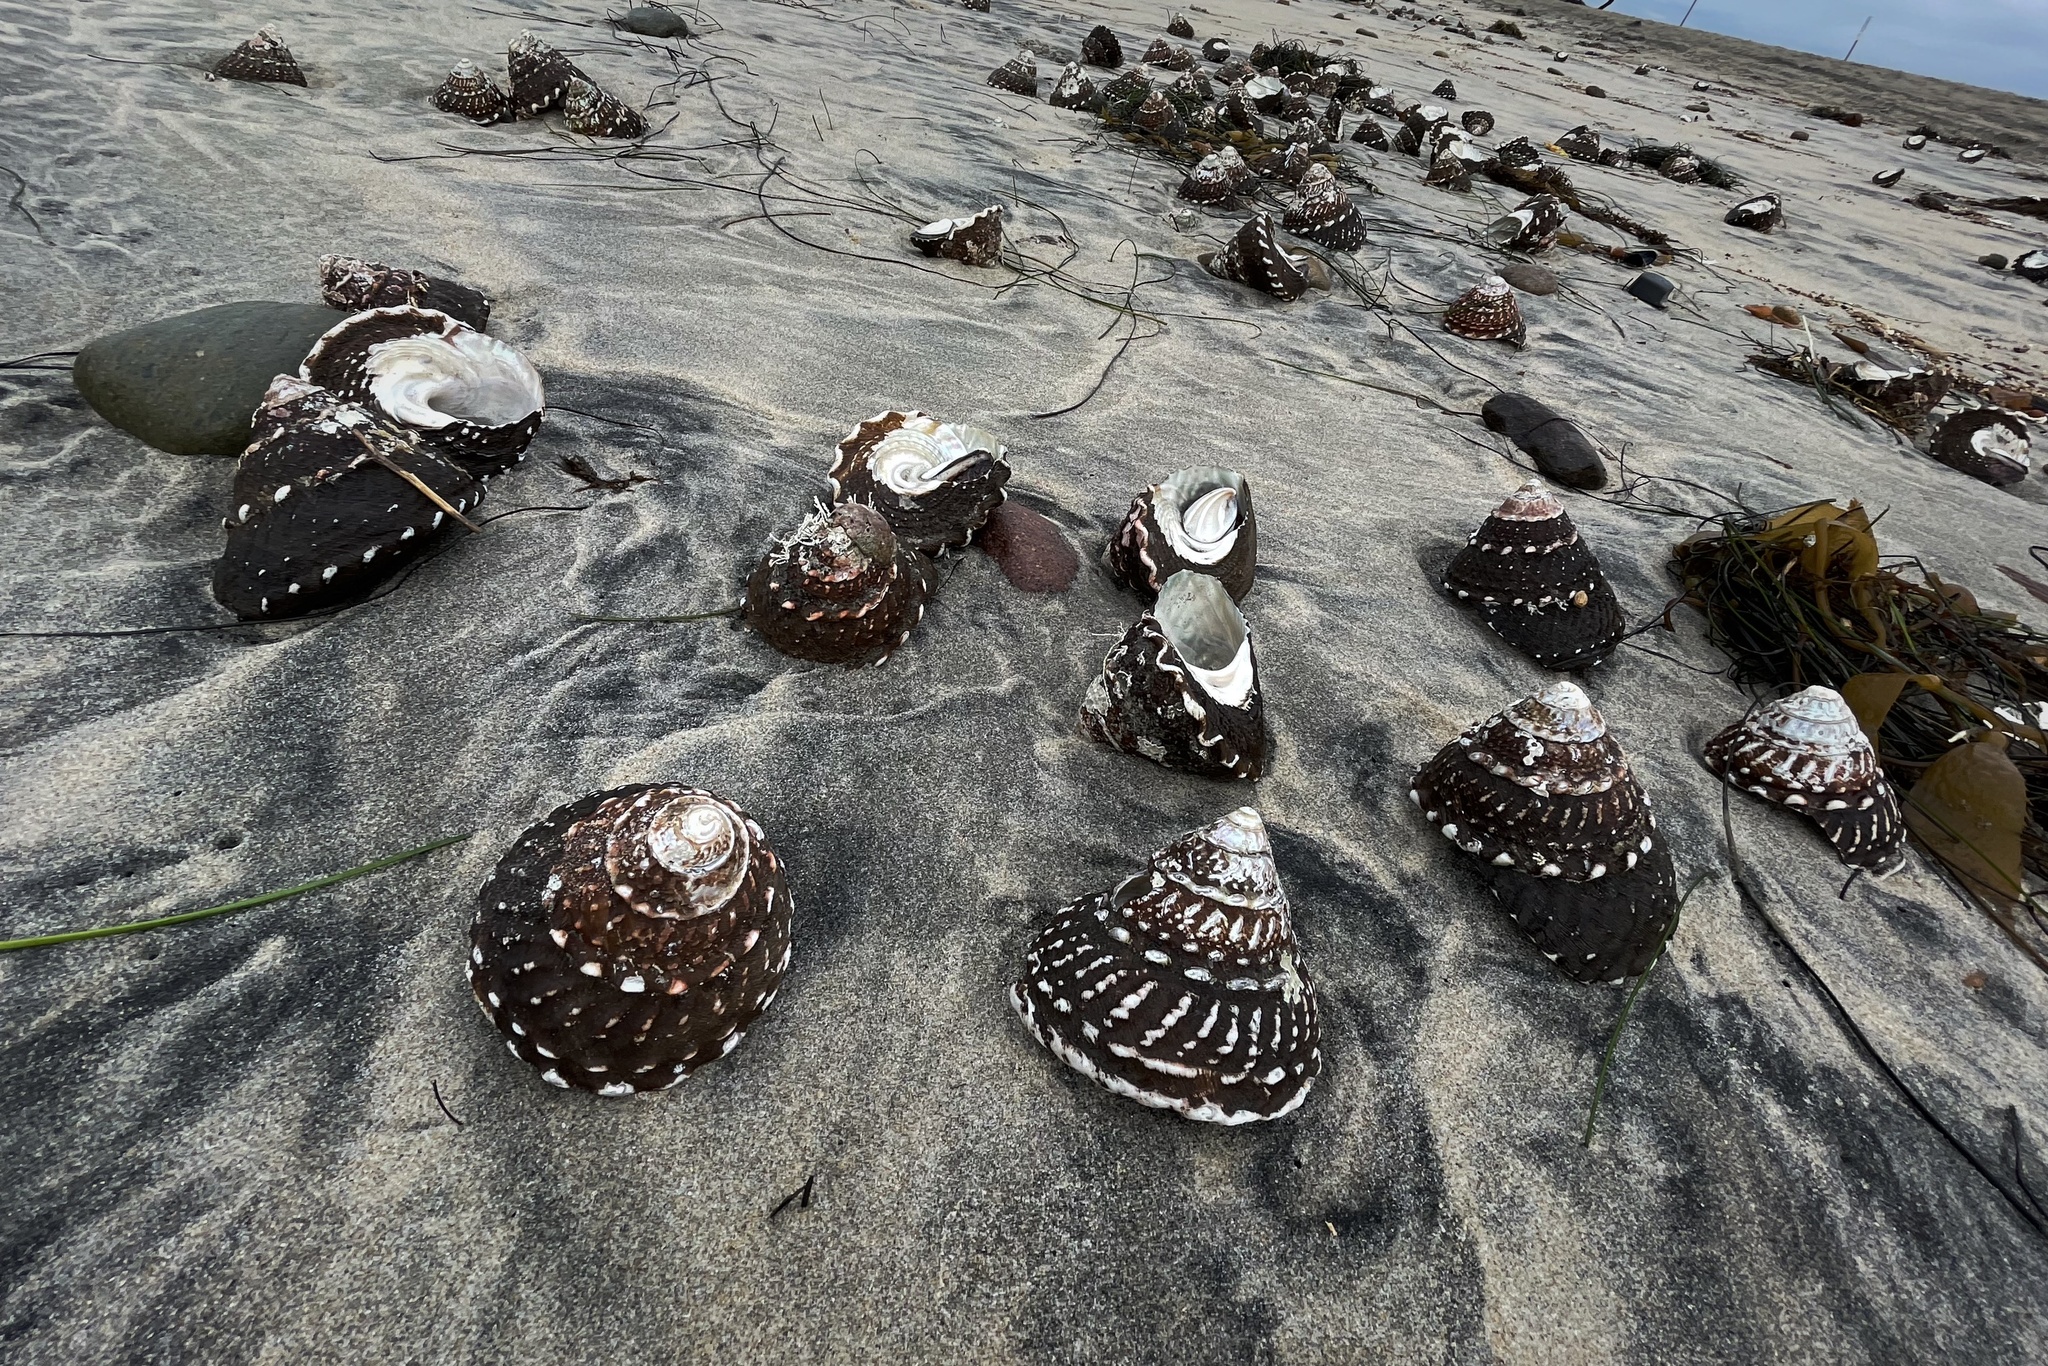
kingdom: Animalia
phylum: Mollusca
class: Gastropoda
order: Trochida
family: Turbinidae
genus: Megastraea
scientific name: Megastraea undosa
